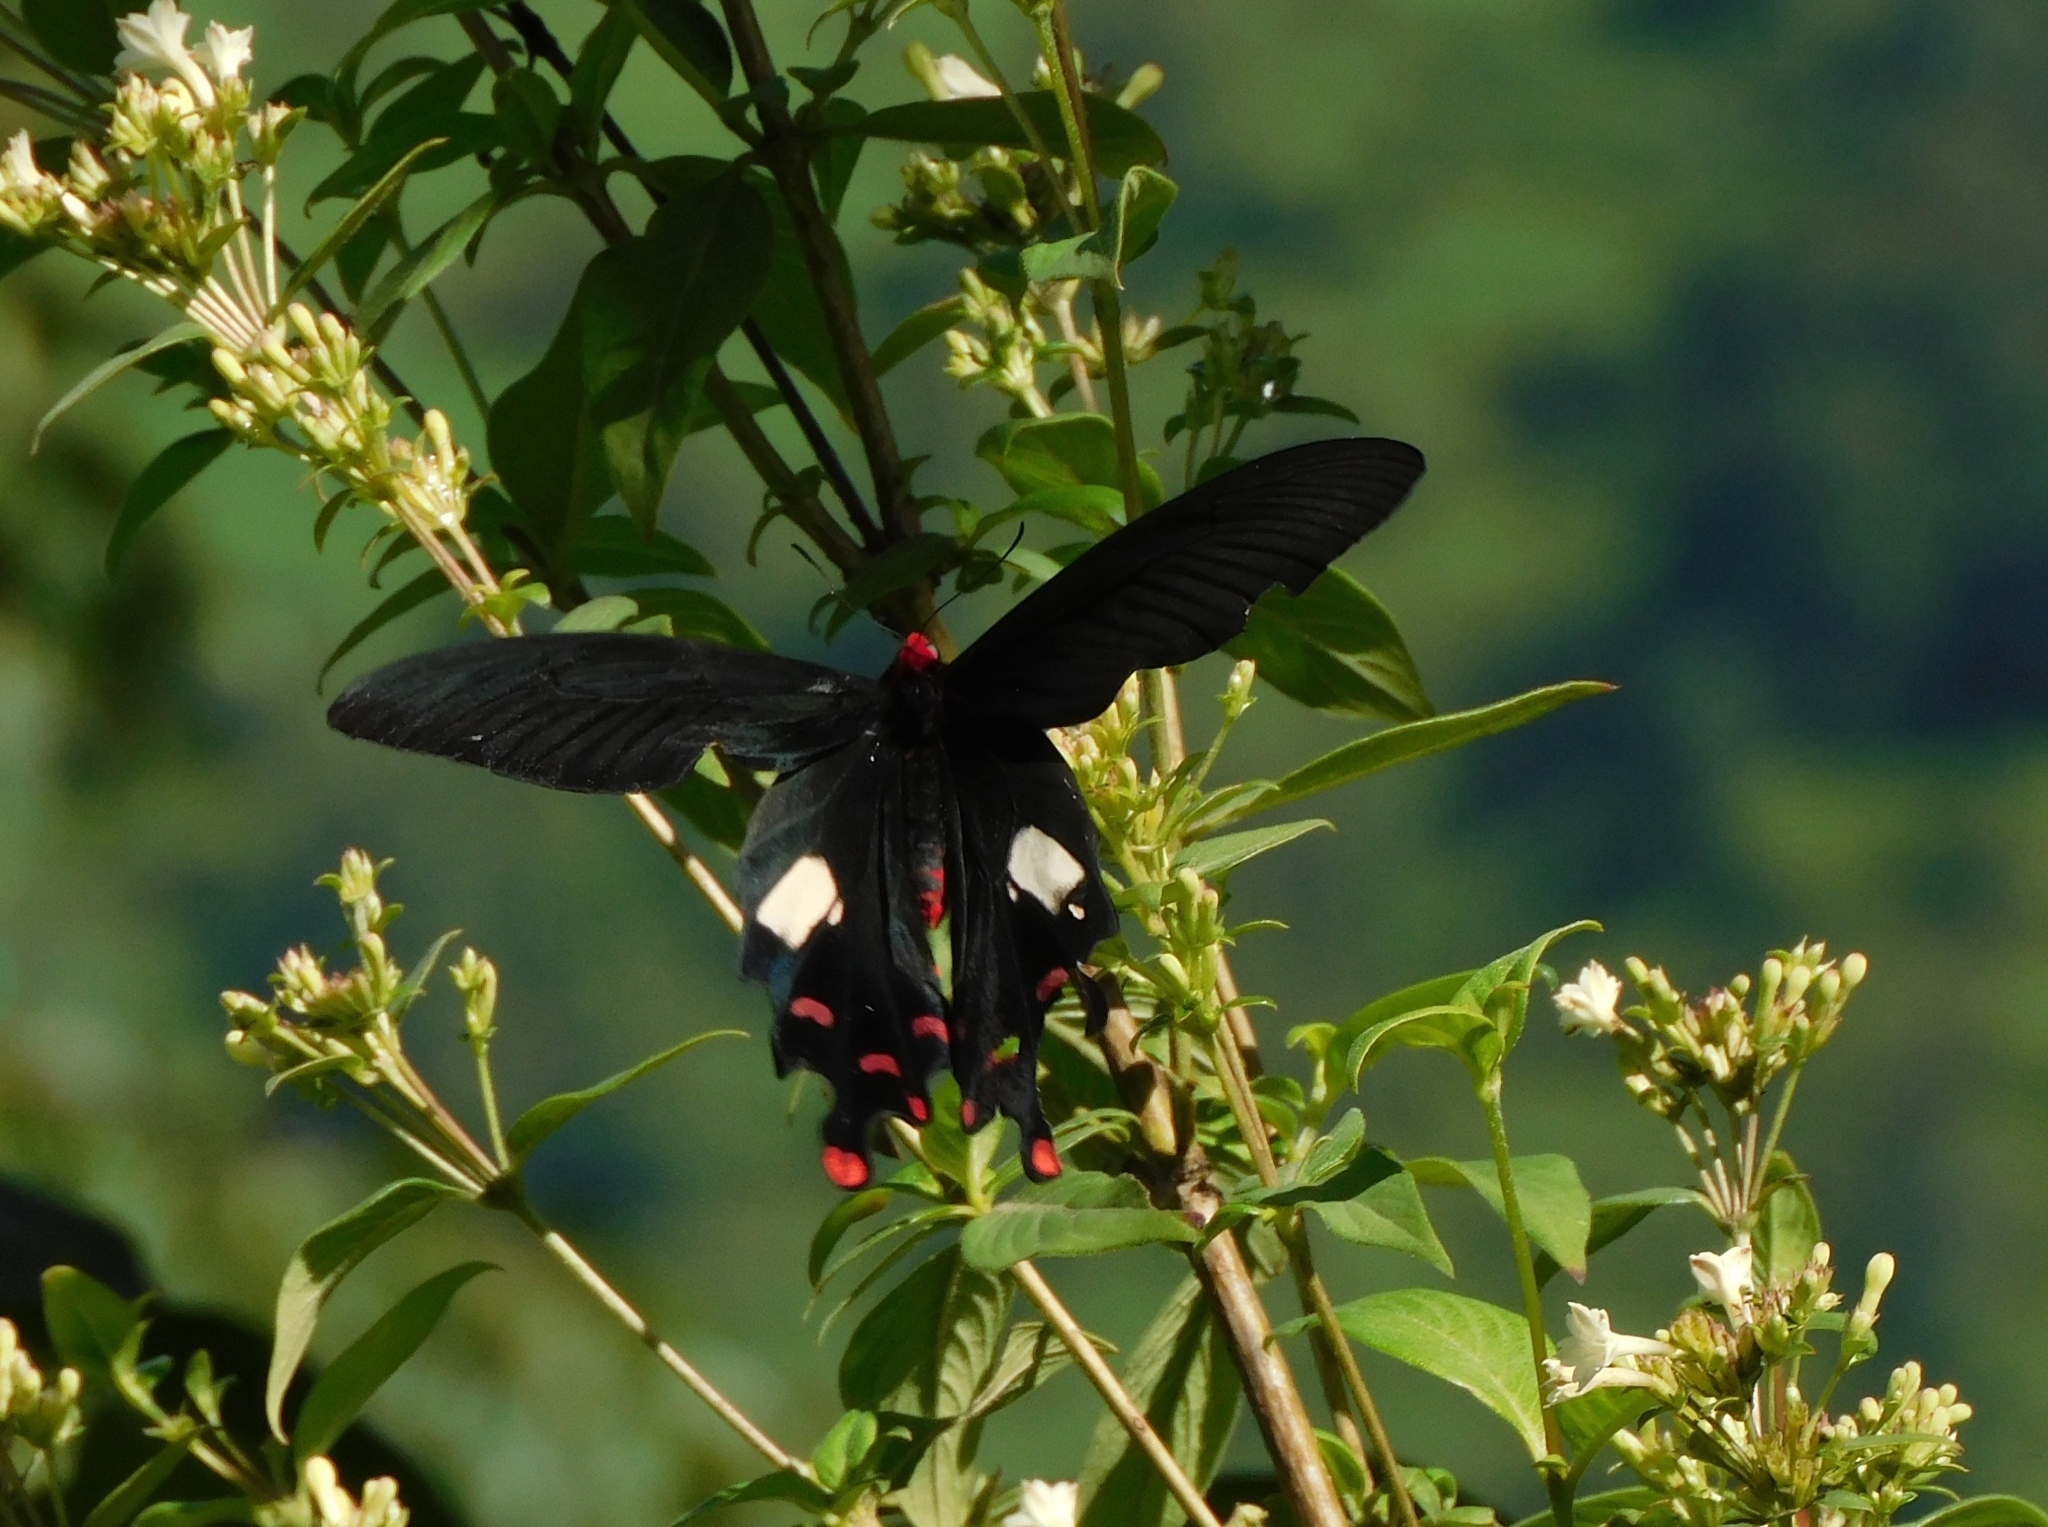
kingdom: Animalia
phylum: Arthropoda
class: Insecta
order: Lepidoptera
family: Papilionidae
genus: Byasa
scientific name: Byasa polyeuctes
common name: Common windmill
